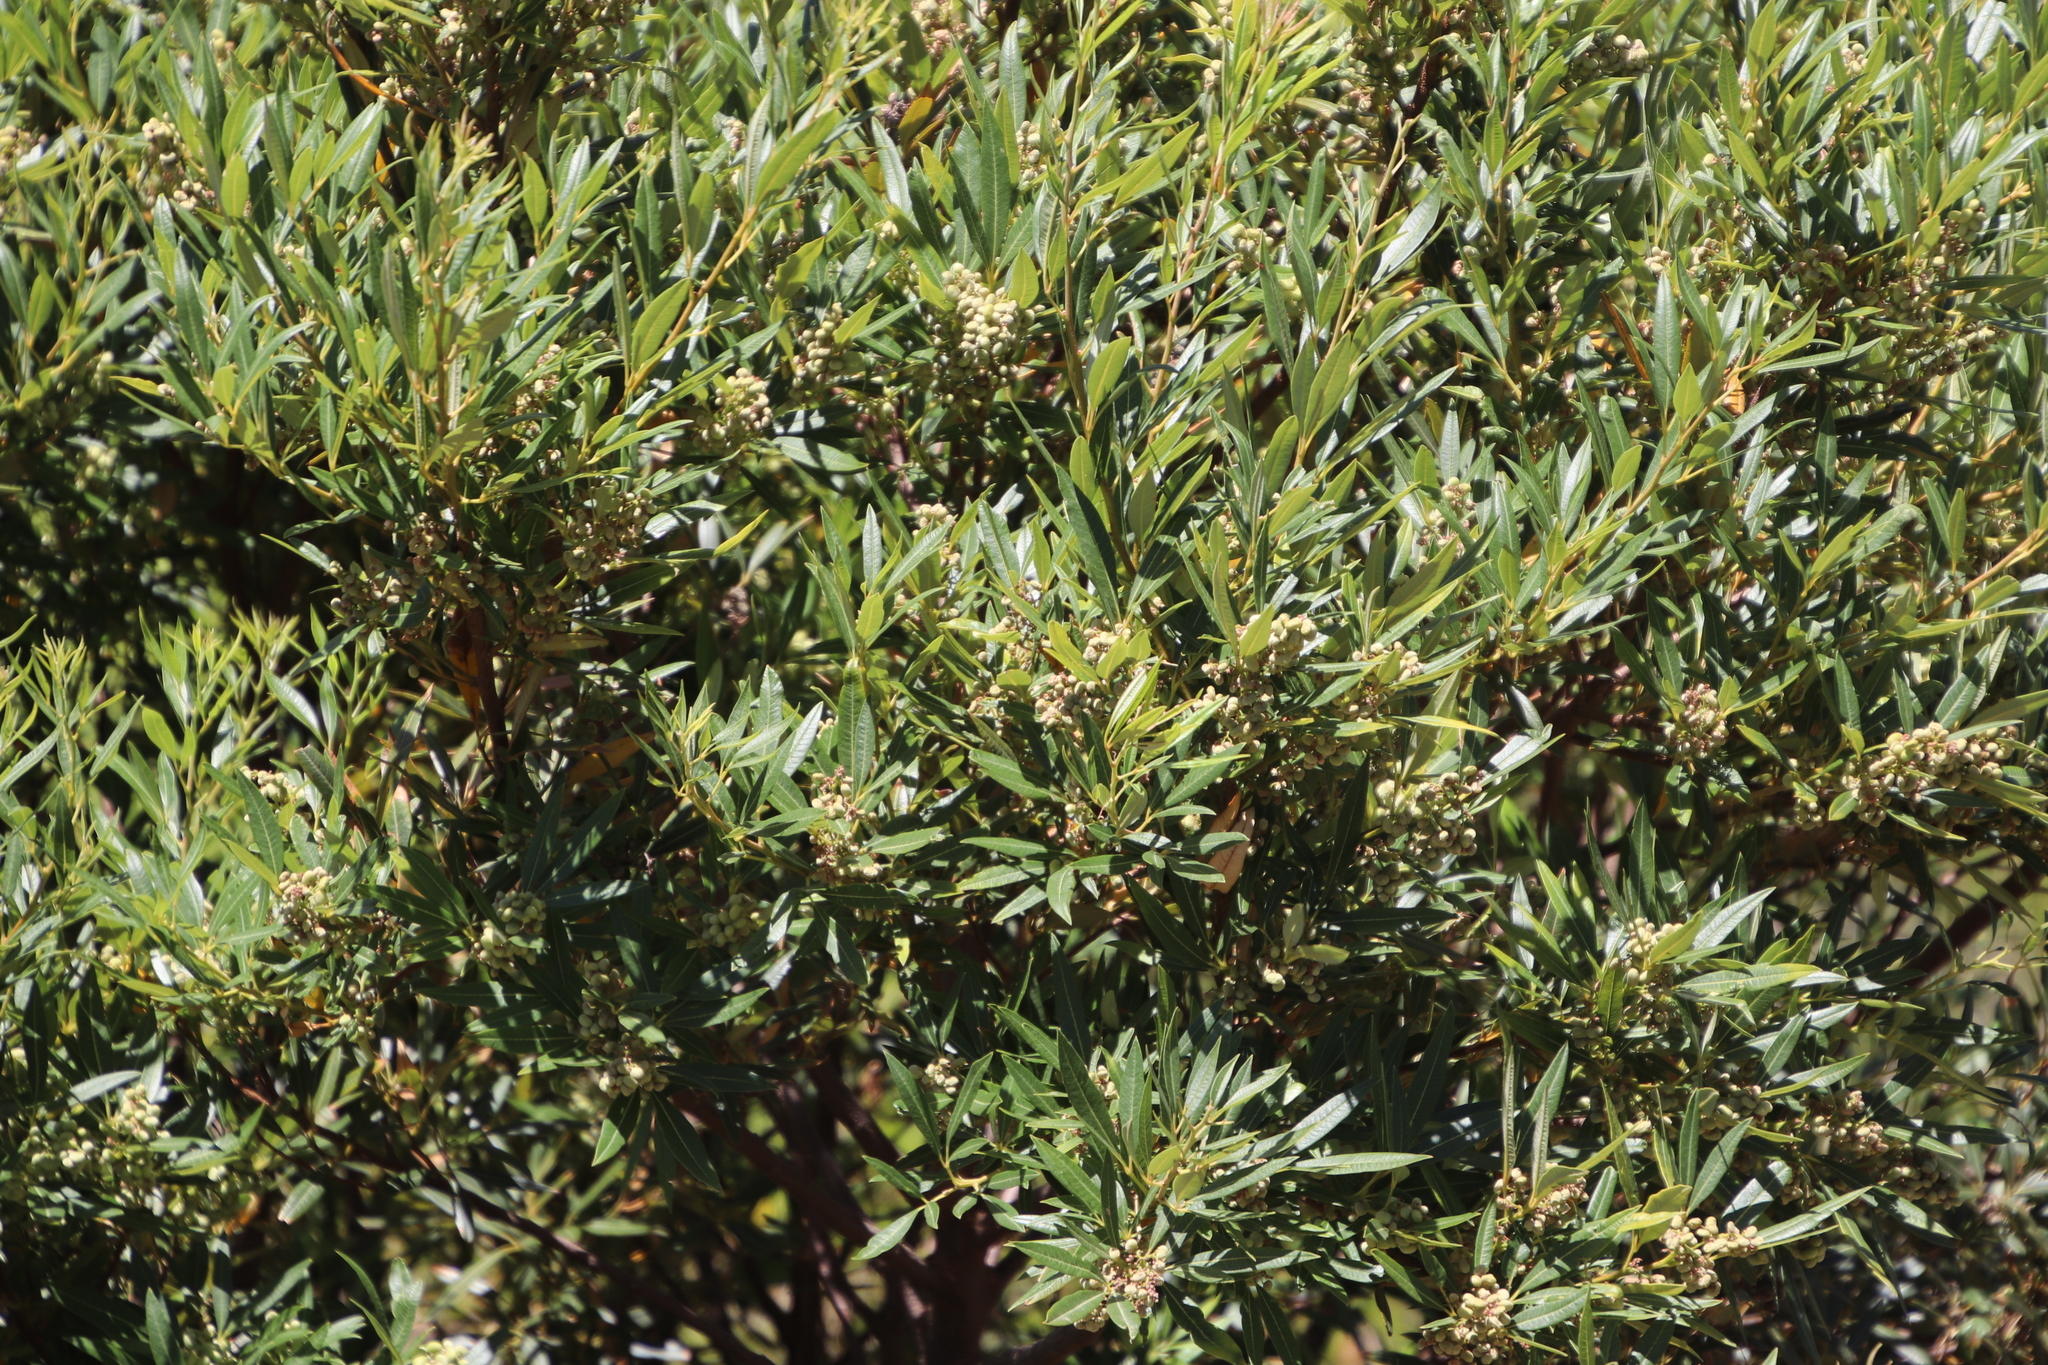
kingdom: Plantae
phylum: Tracheophyta
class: Magnoliopsida
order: Sapindales
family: Anacardiaceae
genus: Searsia
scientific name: Searsia angustifolia
